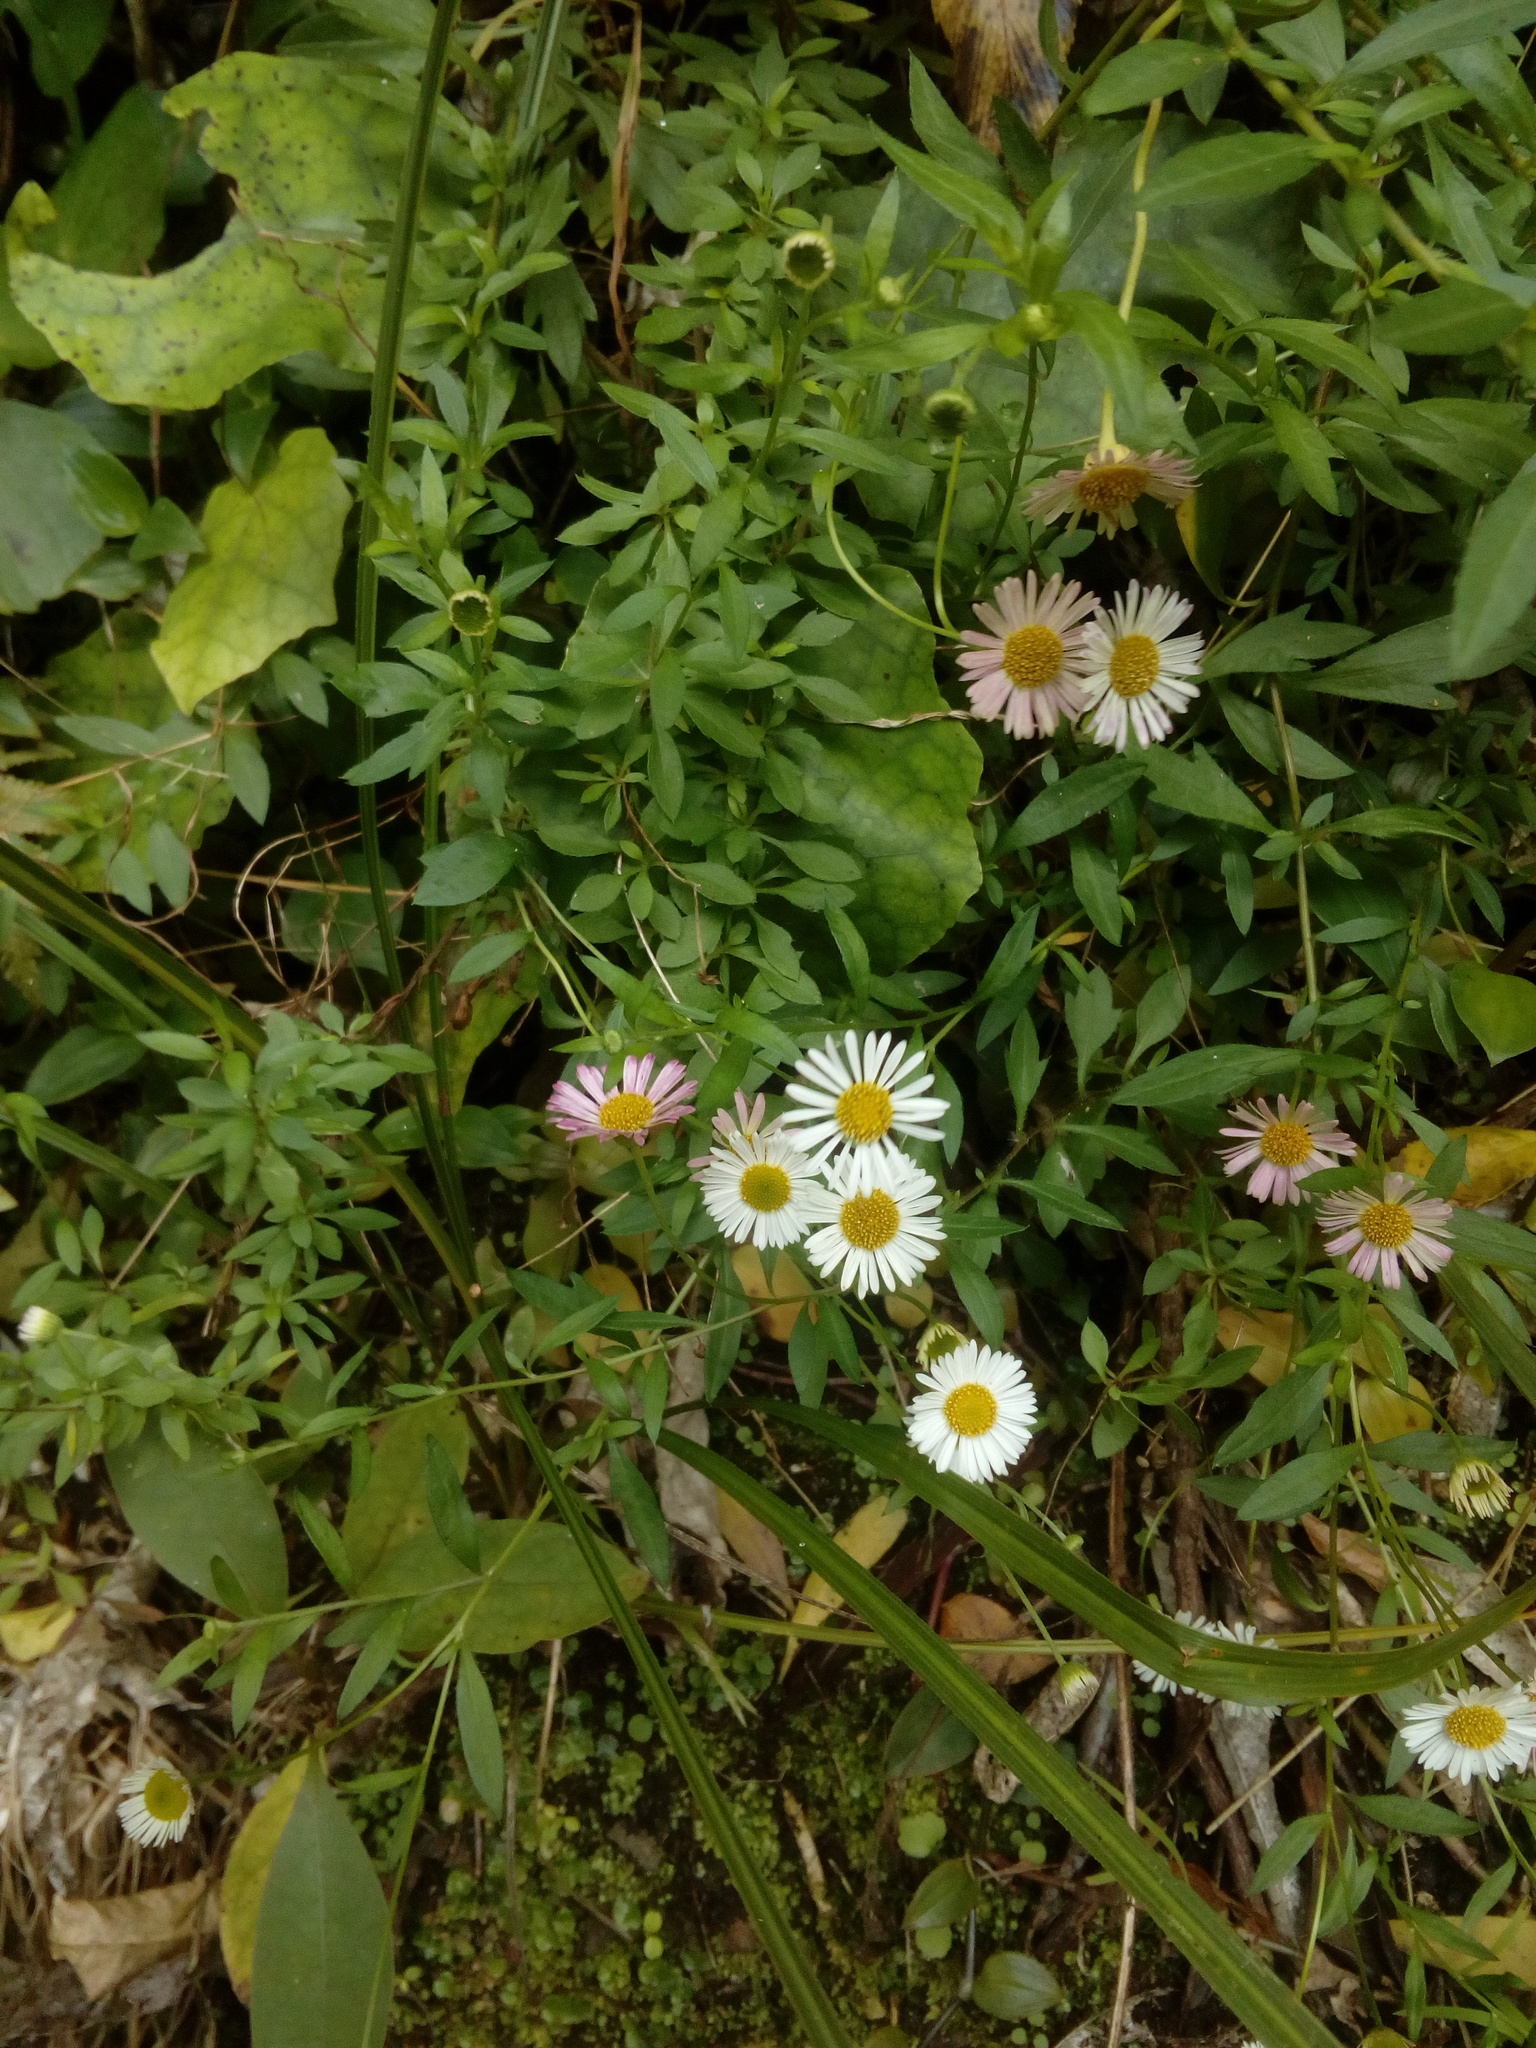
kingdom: Plantae
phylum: Tracheophyta
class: Magnoliopsida
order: Asterales
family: Asteraceae
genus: Erigeron
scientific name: Erigeron karvinskianus
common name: Mexican fleabane
